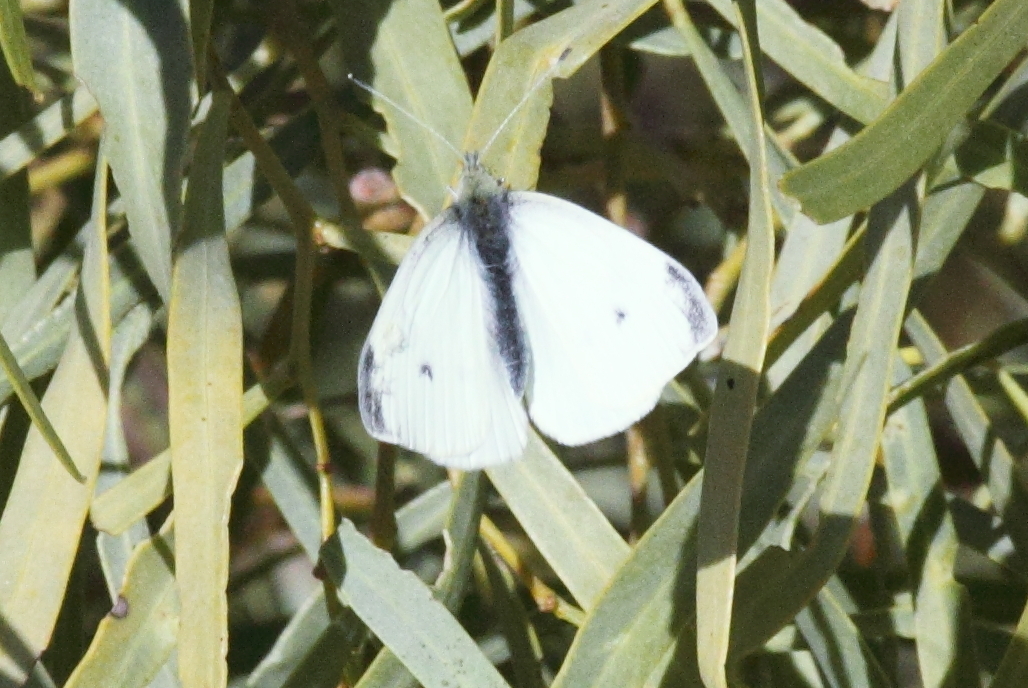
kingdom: Animalia
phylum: Arthropoda
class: Insecta
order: Lepidoptera
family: Pieridae
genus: Pieris
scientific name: Pieris rapae
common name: Small white
